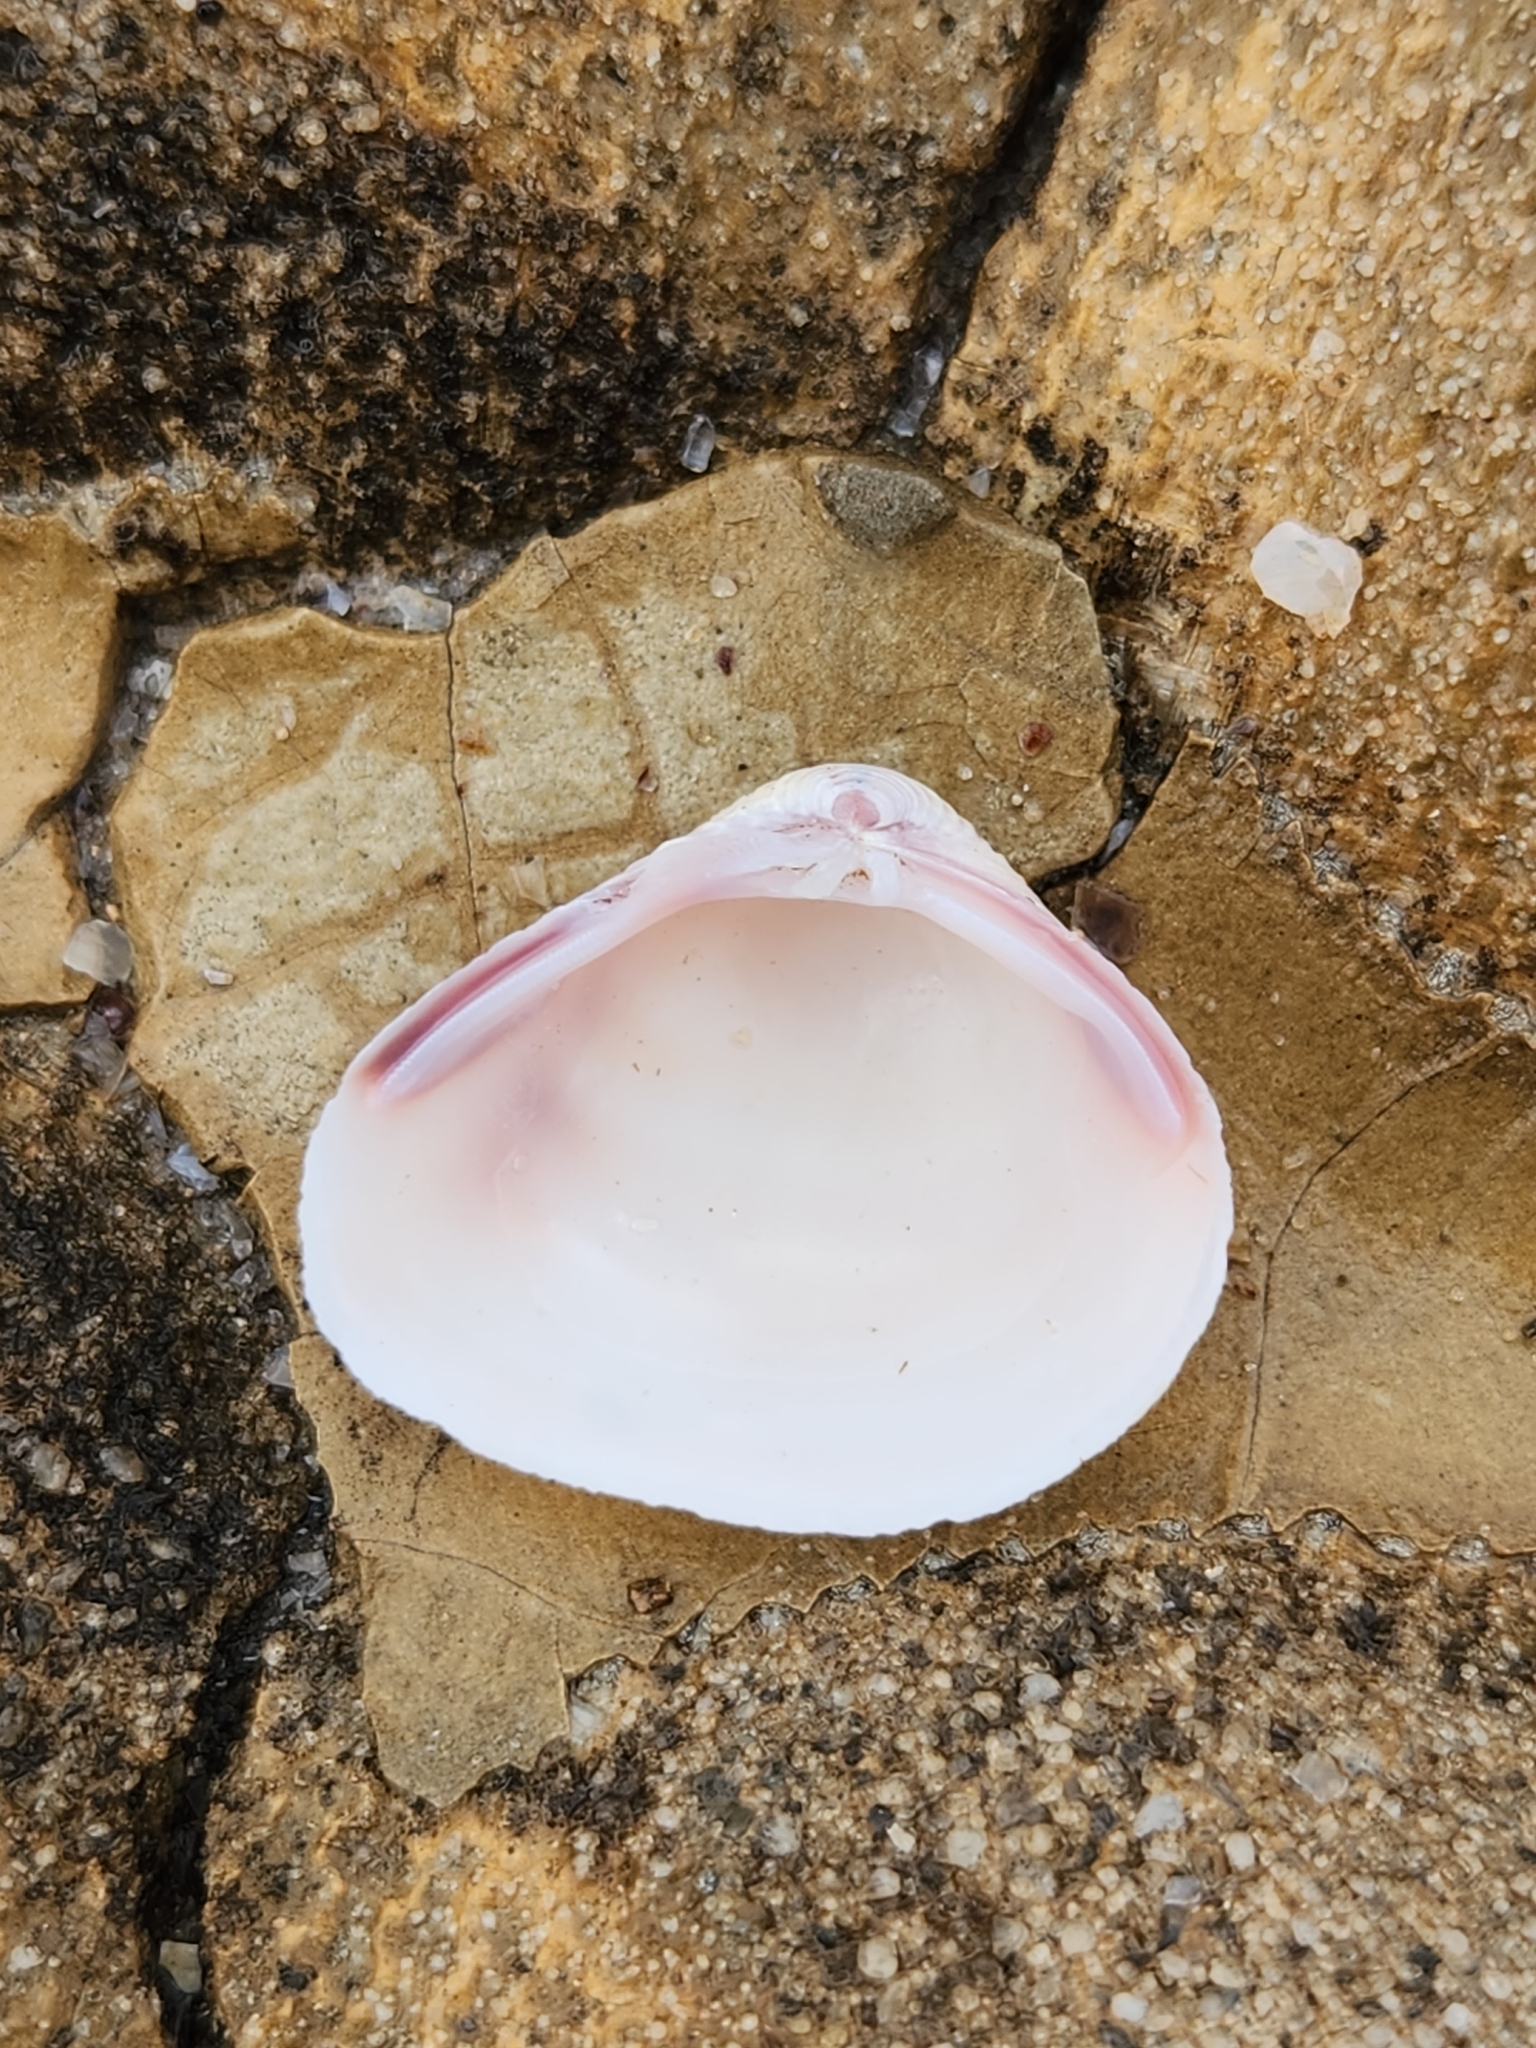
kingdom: Animalia
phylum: Mollusca
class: Bivalvia
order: Venerida
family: Cyrenidae
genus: Corbicula
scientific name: Corbicula fluminea
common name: Asian clam
